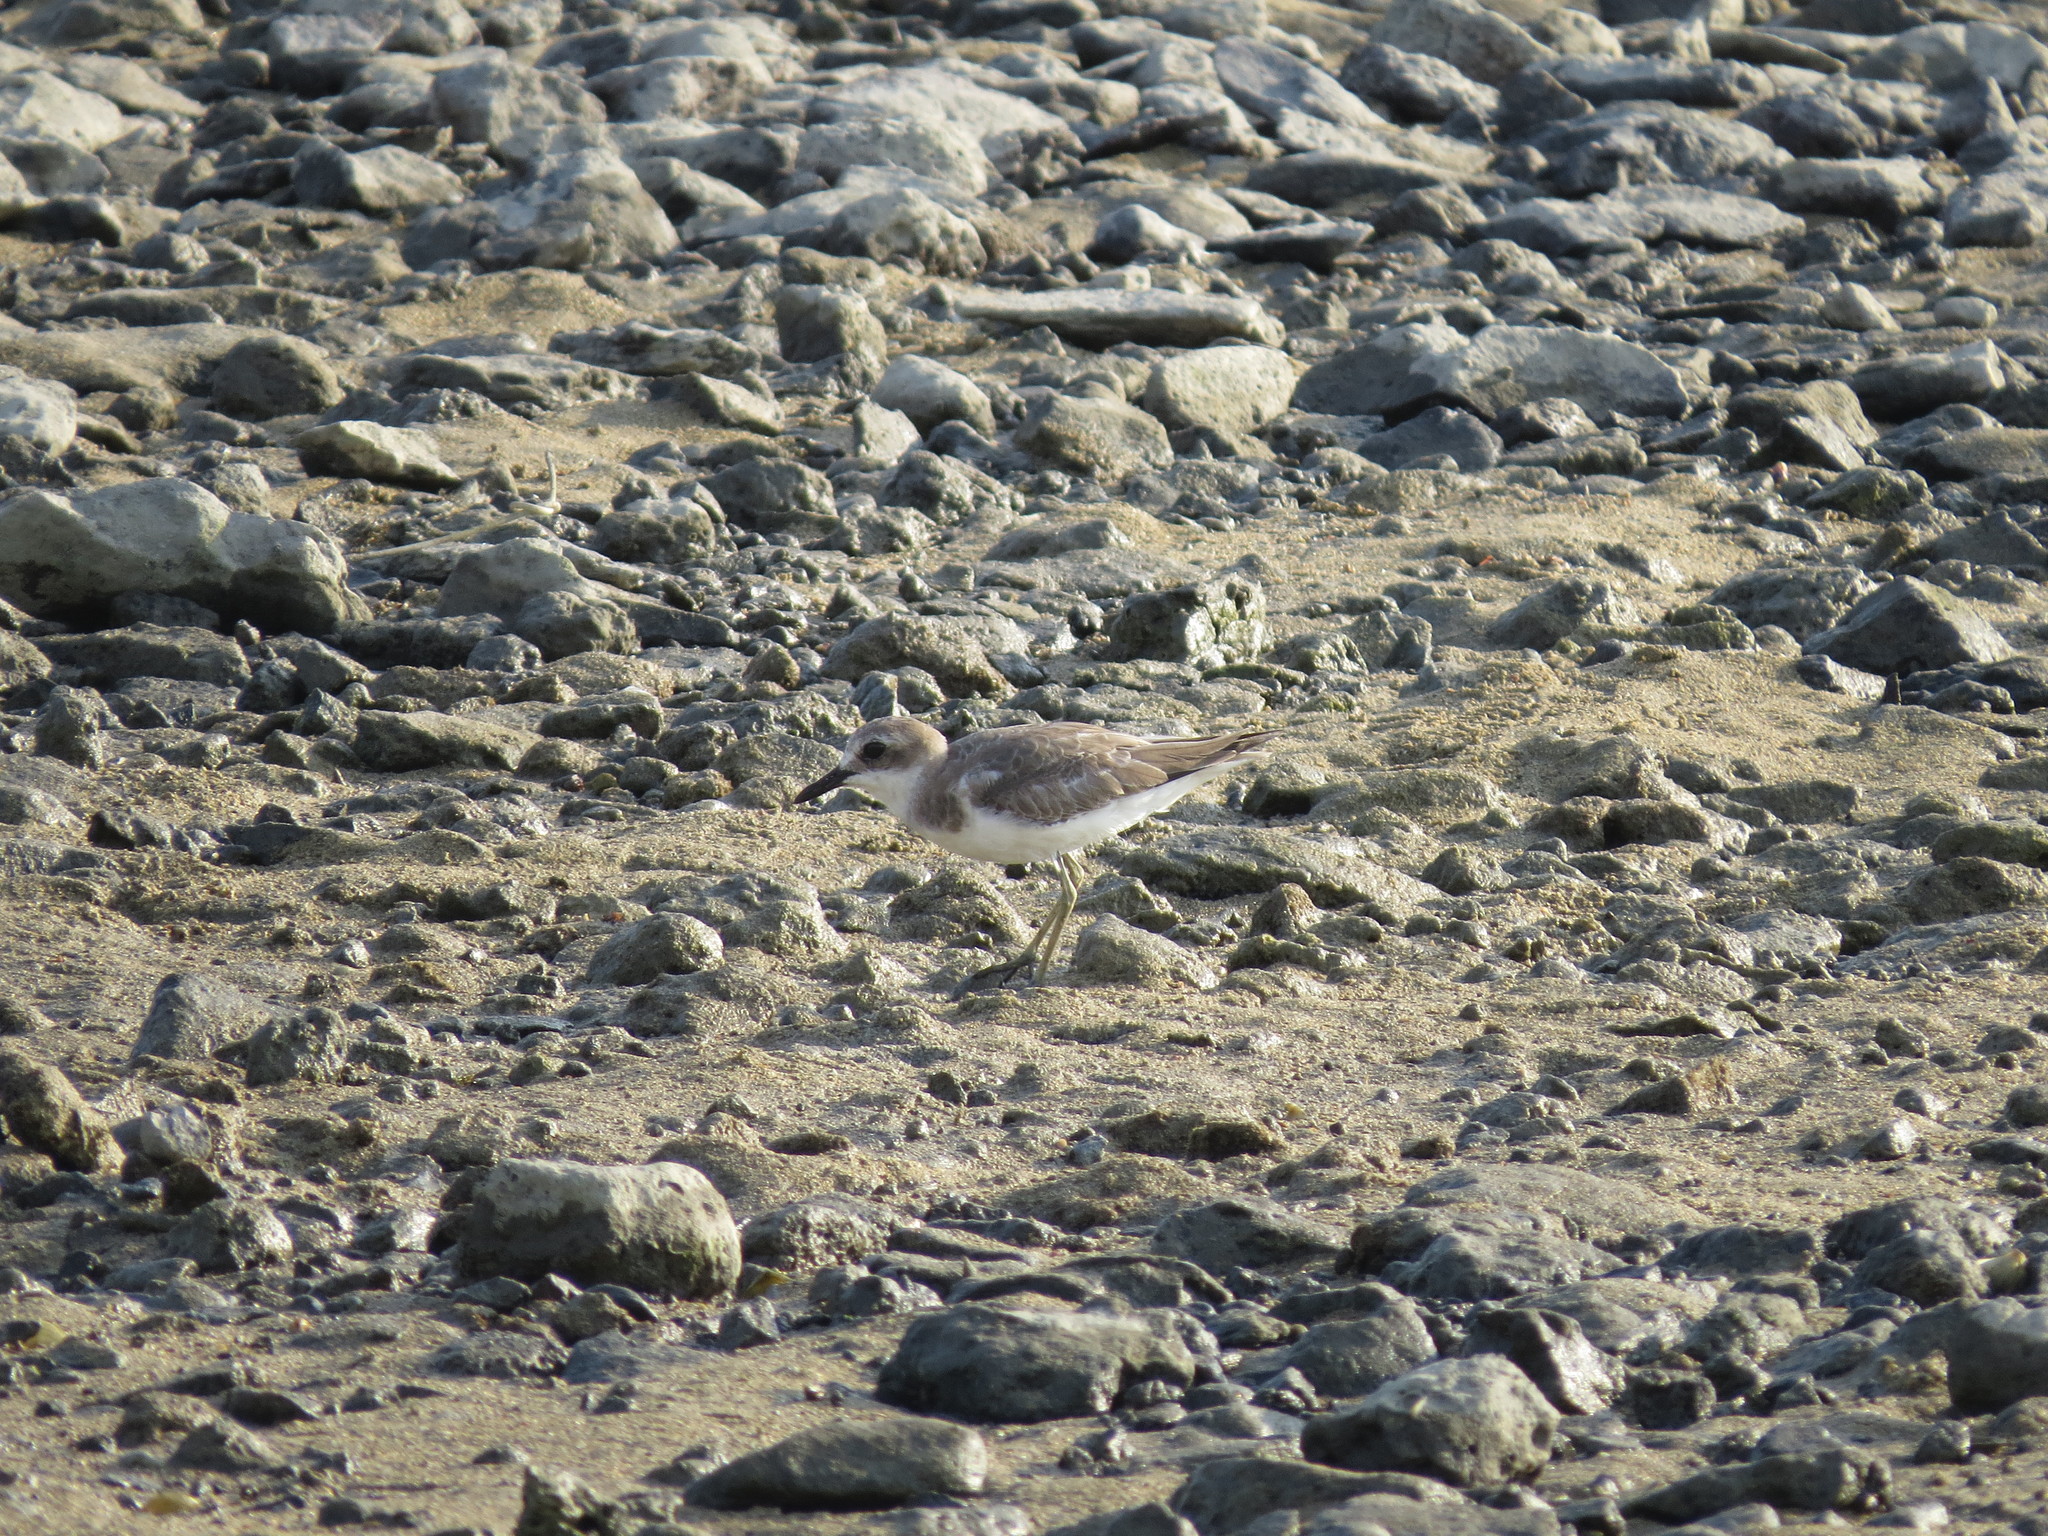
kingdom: Animalia
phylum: Chordata
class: Aves
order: Charadriiformes
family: Charadriidae
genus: Charadrius
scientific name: Charadrius leschenaultii
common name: Greater sand plover
